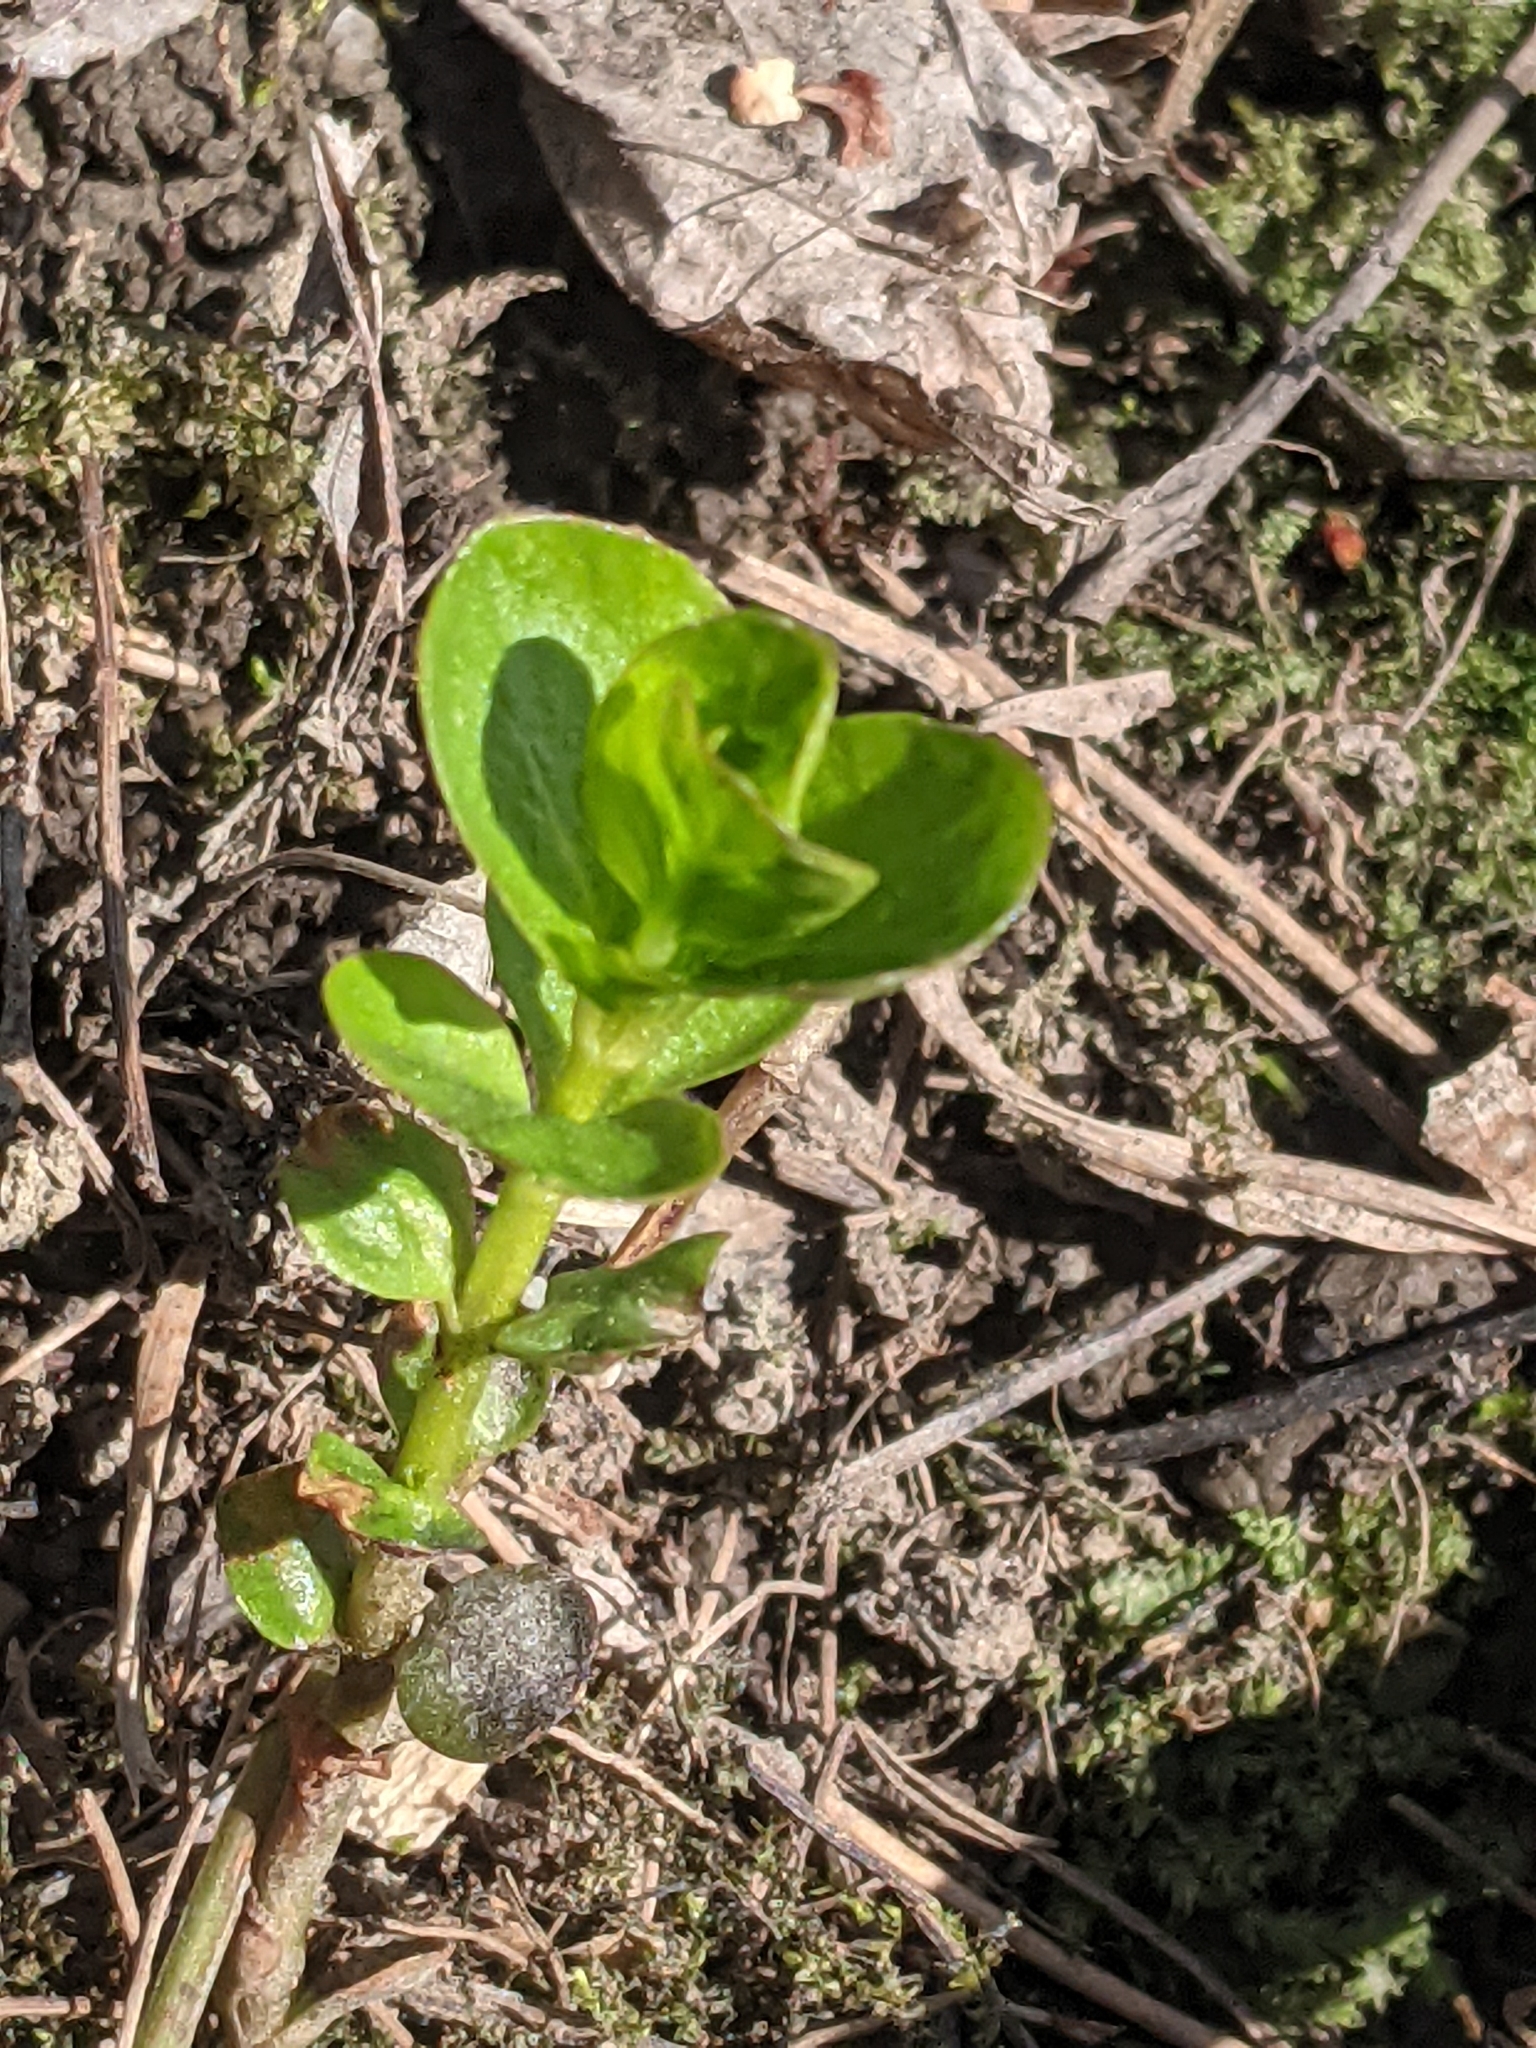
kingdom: Plantae
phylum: Tracheophyta
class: Magnoliopsida
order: Ericales
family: Primulaceae
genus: Lysimachia
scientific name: Lysimachia nummularia
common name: Moneywort
